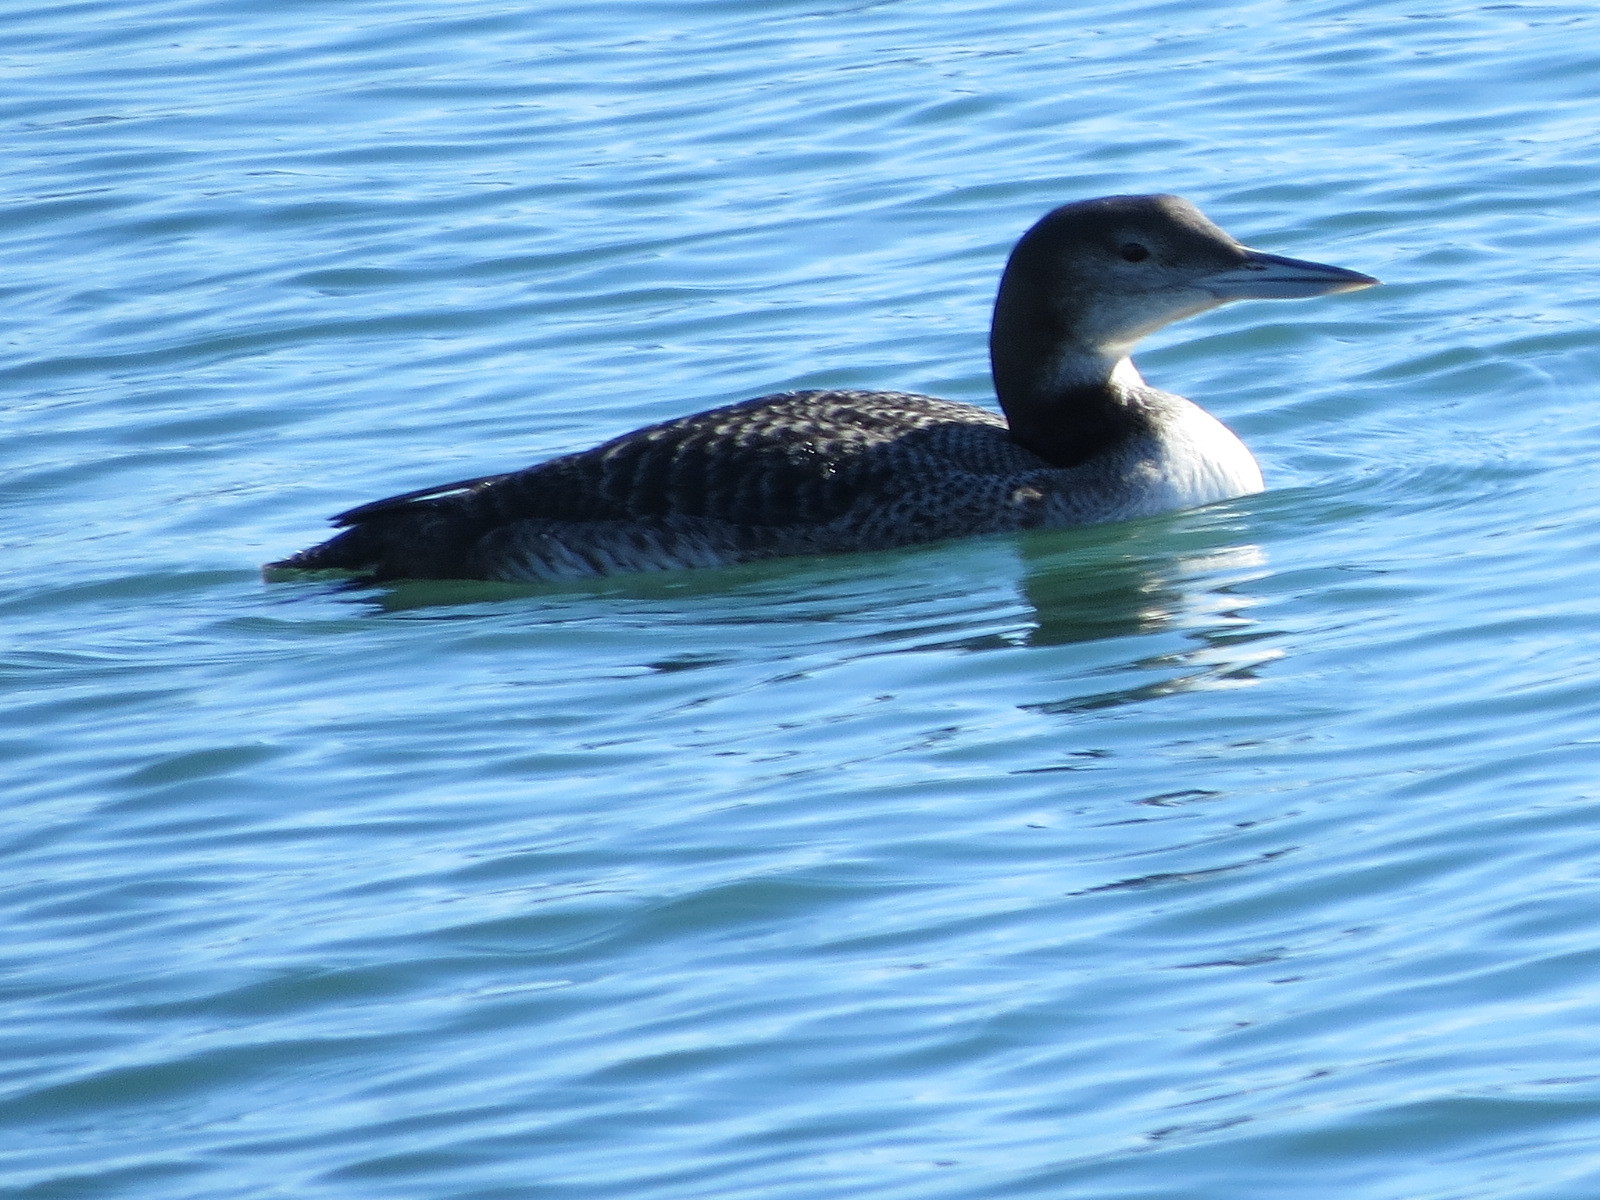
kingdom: Animalia
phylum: Chordata
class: Aves
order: Gaviiformes
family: Gaviidae
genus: Gavia
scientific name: Gavia immer
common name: Common loon
